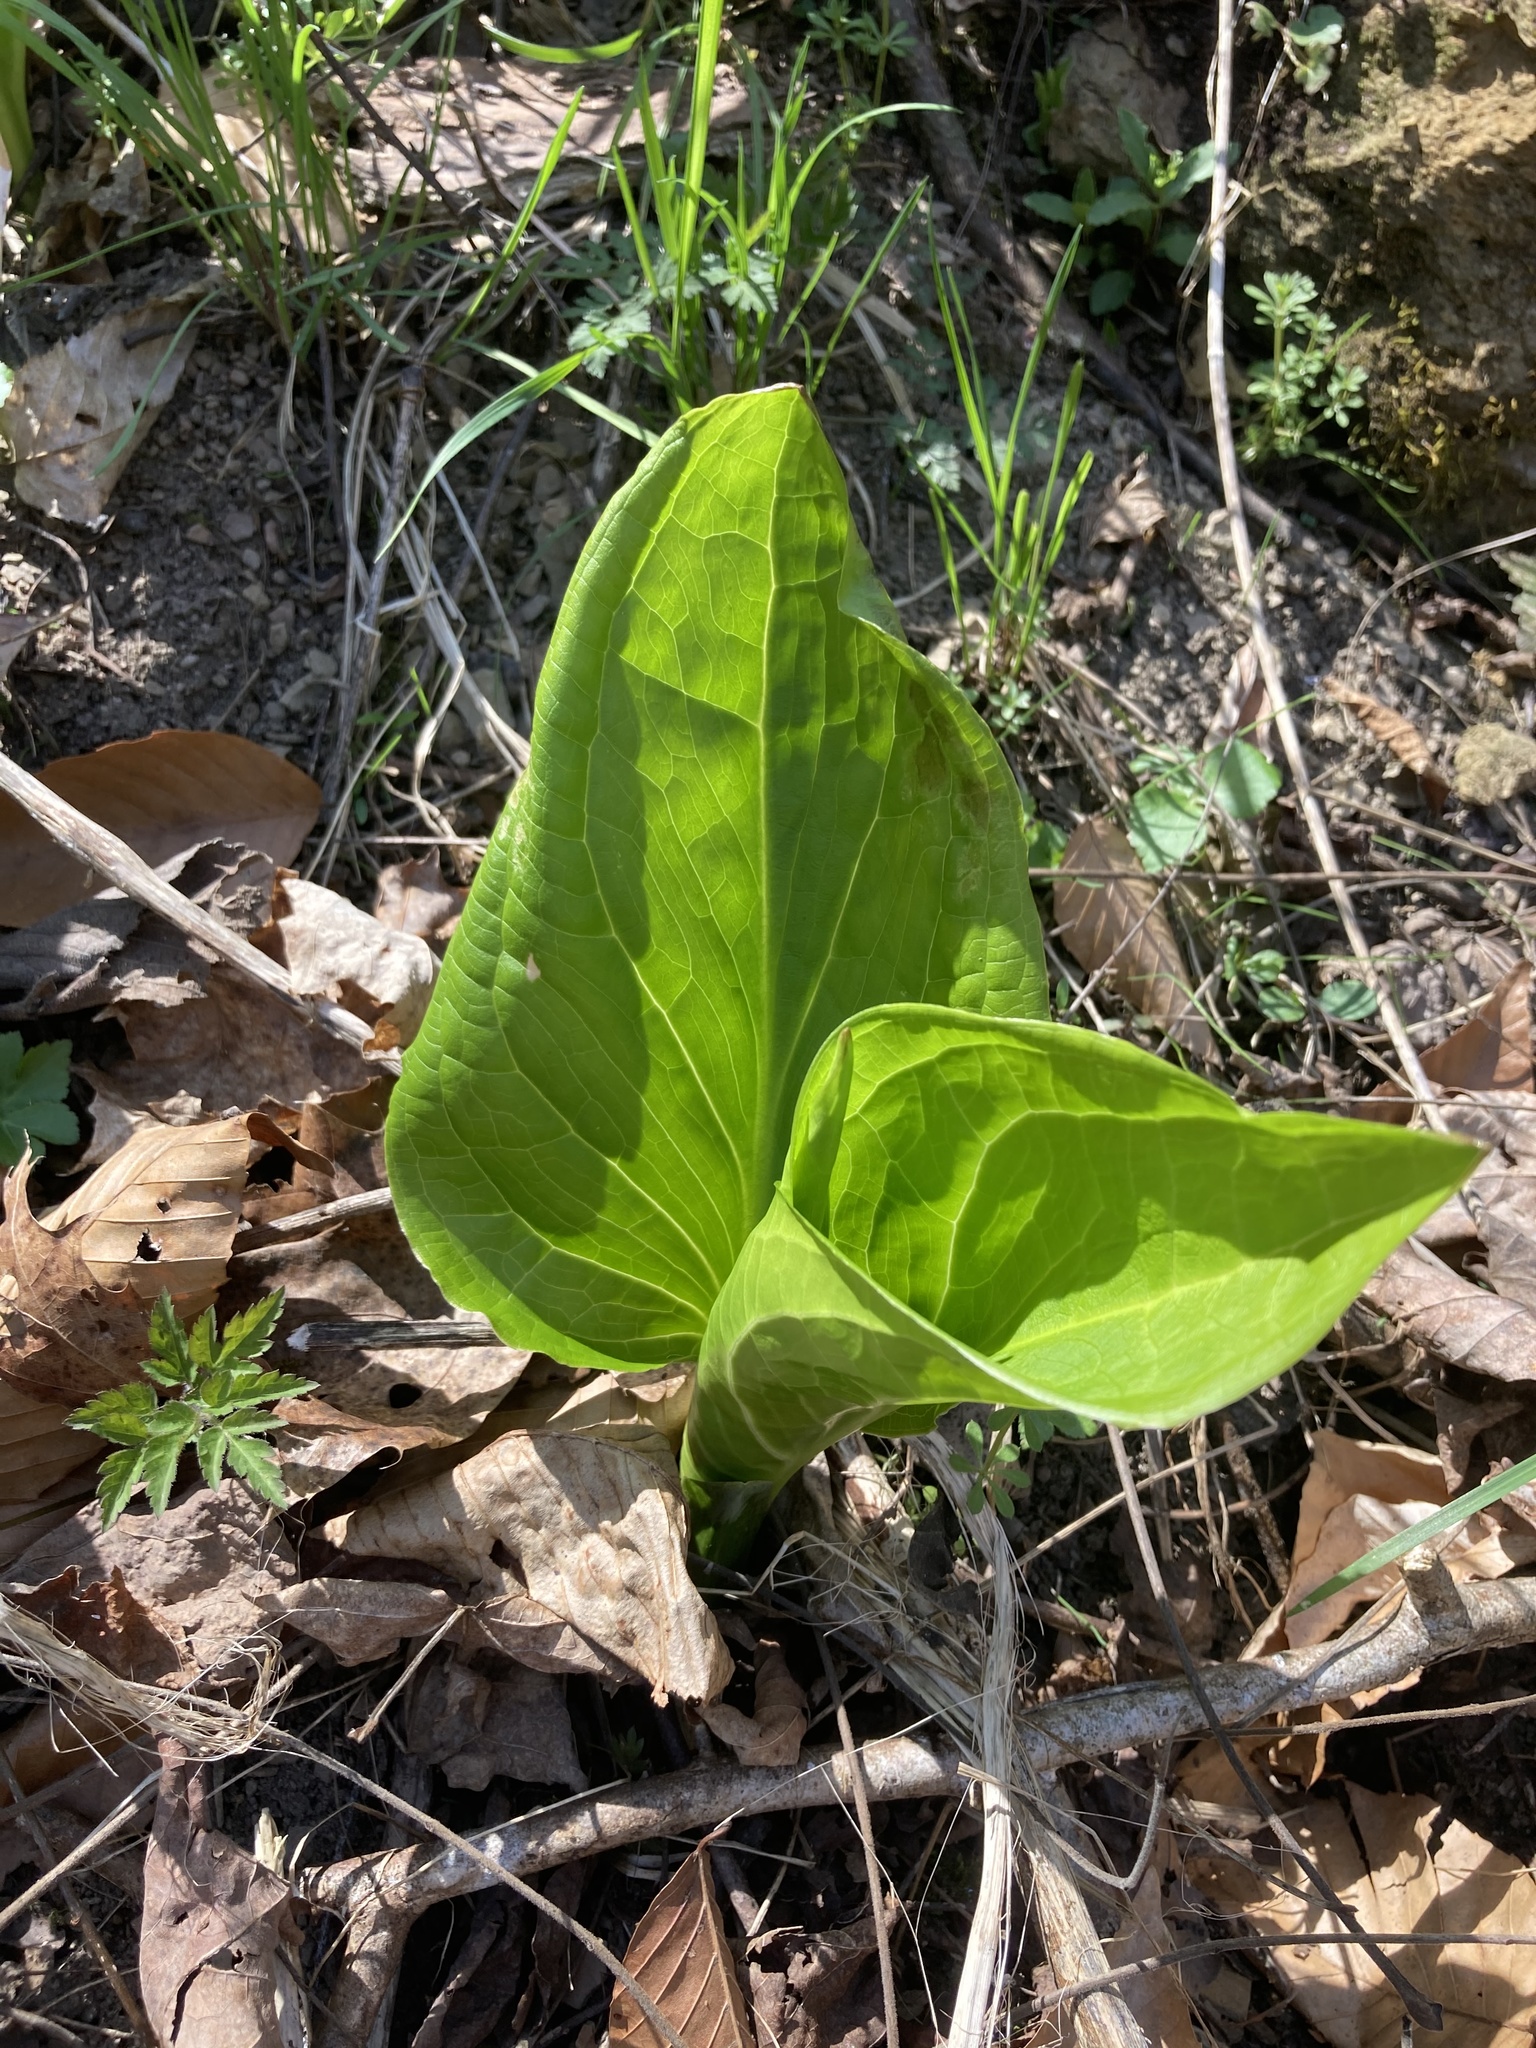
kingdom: Plantae
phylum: Tracheophyta
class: Liliopsida
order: Alismatales
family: Araceae
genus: Symplocarpus
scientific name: Symplocarpus foetidus
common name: Eastern skunk cabbage
